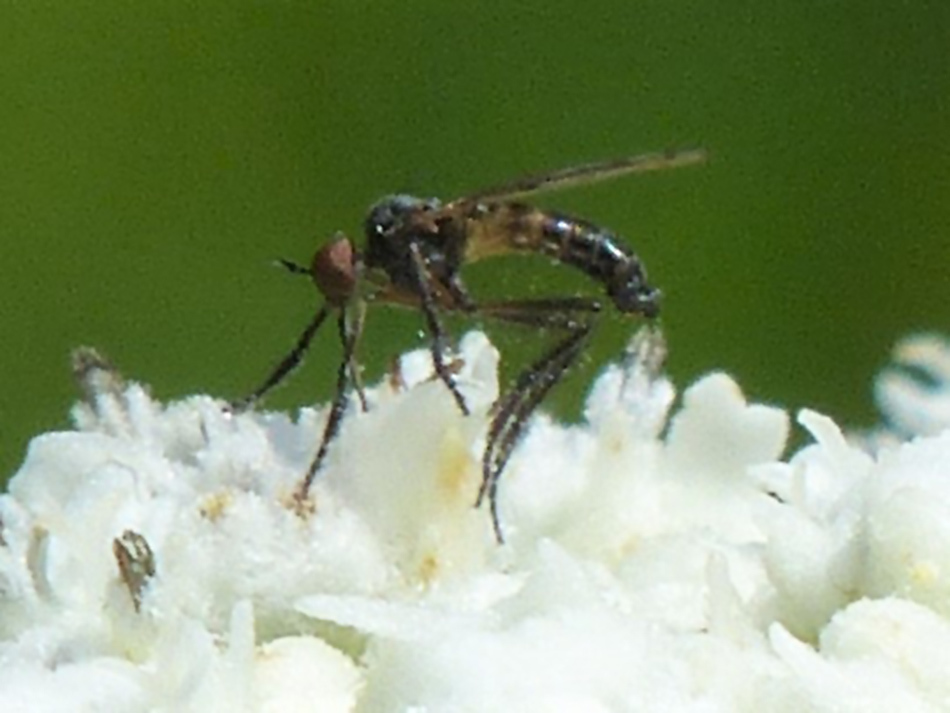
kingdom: Animalia
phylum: Arthropoda
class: Insecta
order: Diptera
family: Empididae
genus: Empis
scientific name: Empis clausa
